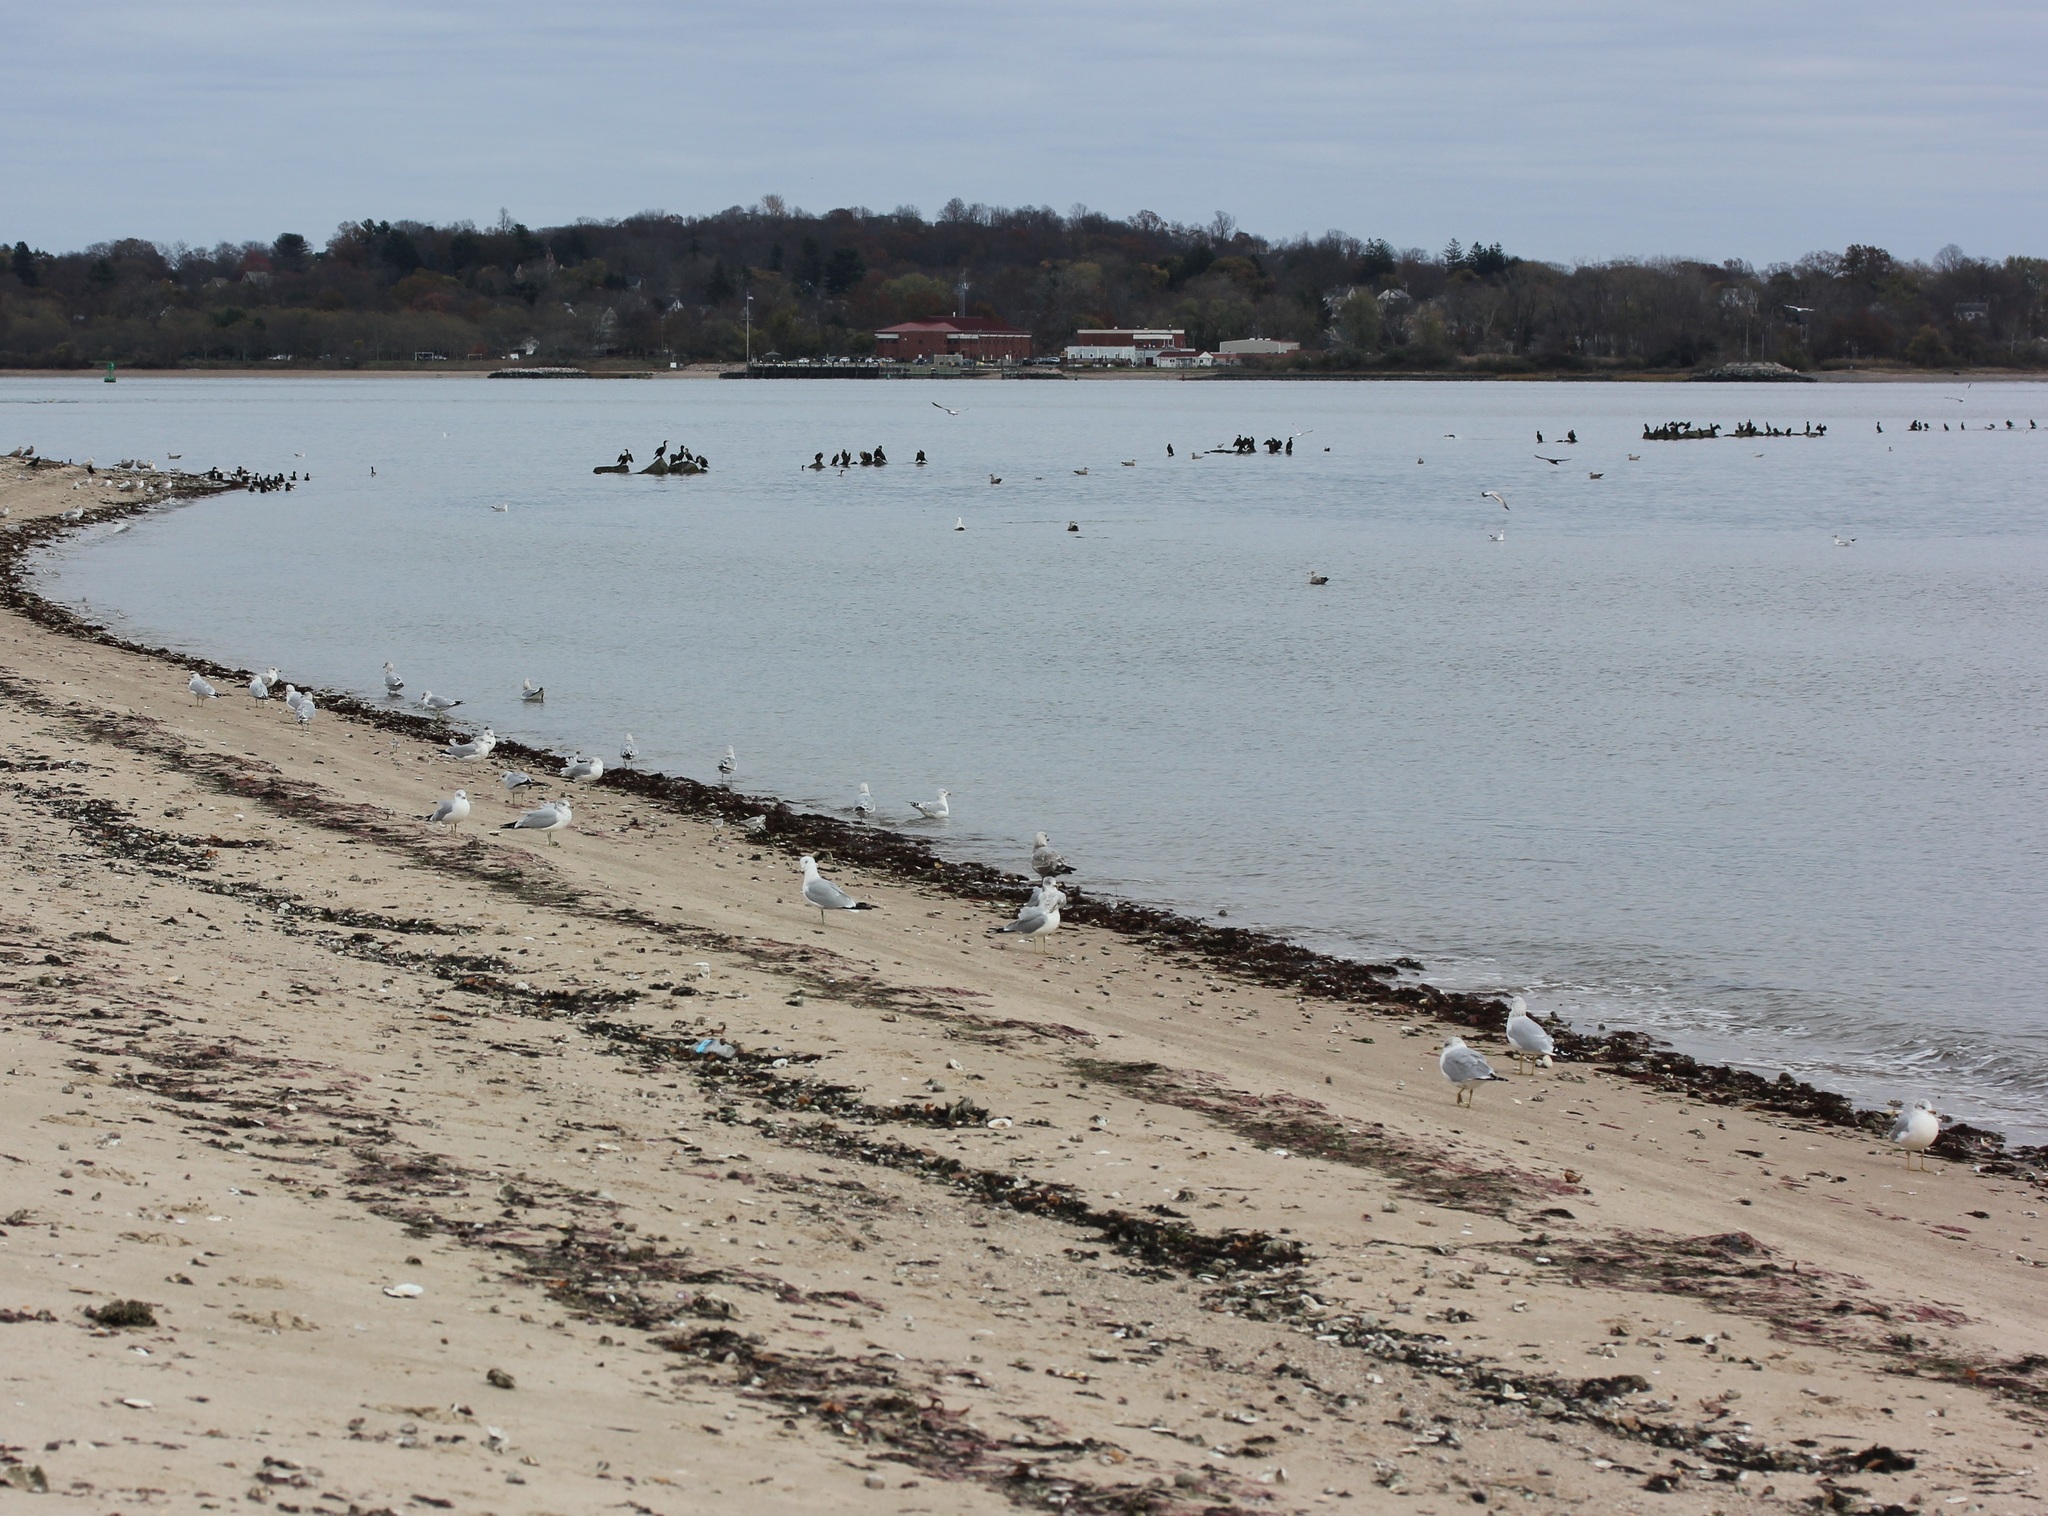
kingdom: Animalia
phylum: Chordata
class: Aves
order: Charadriiformes
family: Laridae
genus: Larus
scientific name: Larus delawarensis
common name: Ring-billed gull
